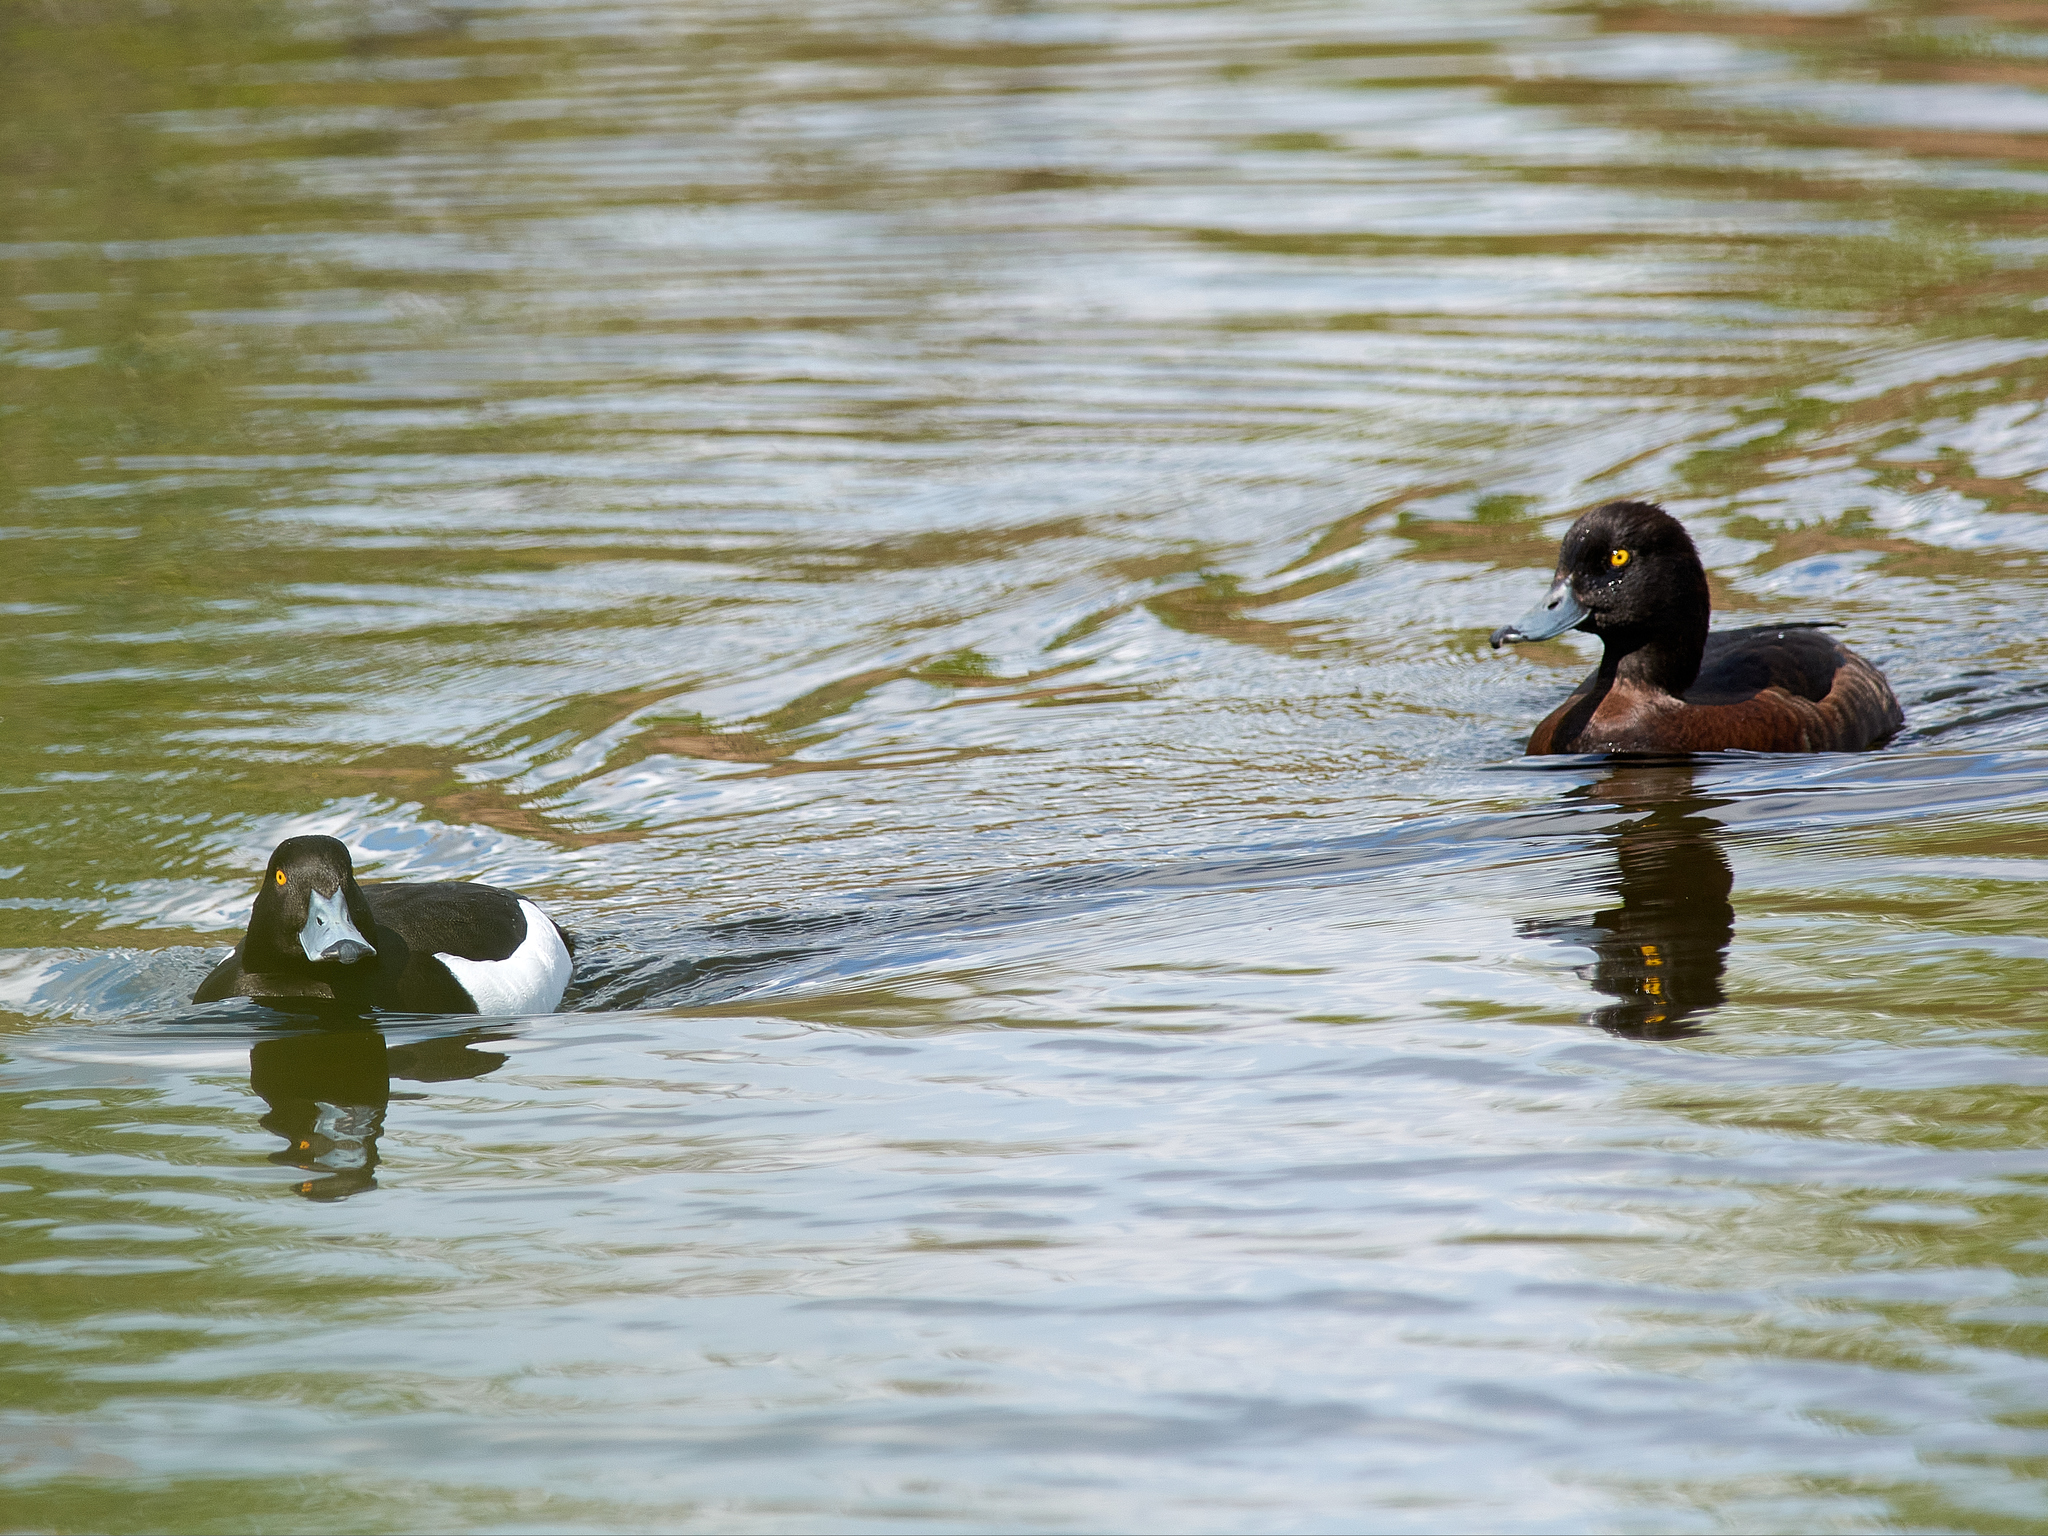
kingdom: Animalia
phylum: Chordata
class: Aves
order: Anseriformes
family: Anatidae
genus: Aythya
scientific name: Aythya fuligula
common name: Tufted duck
